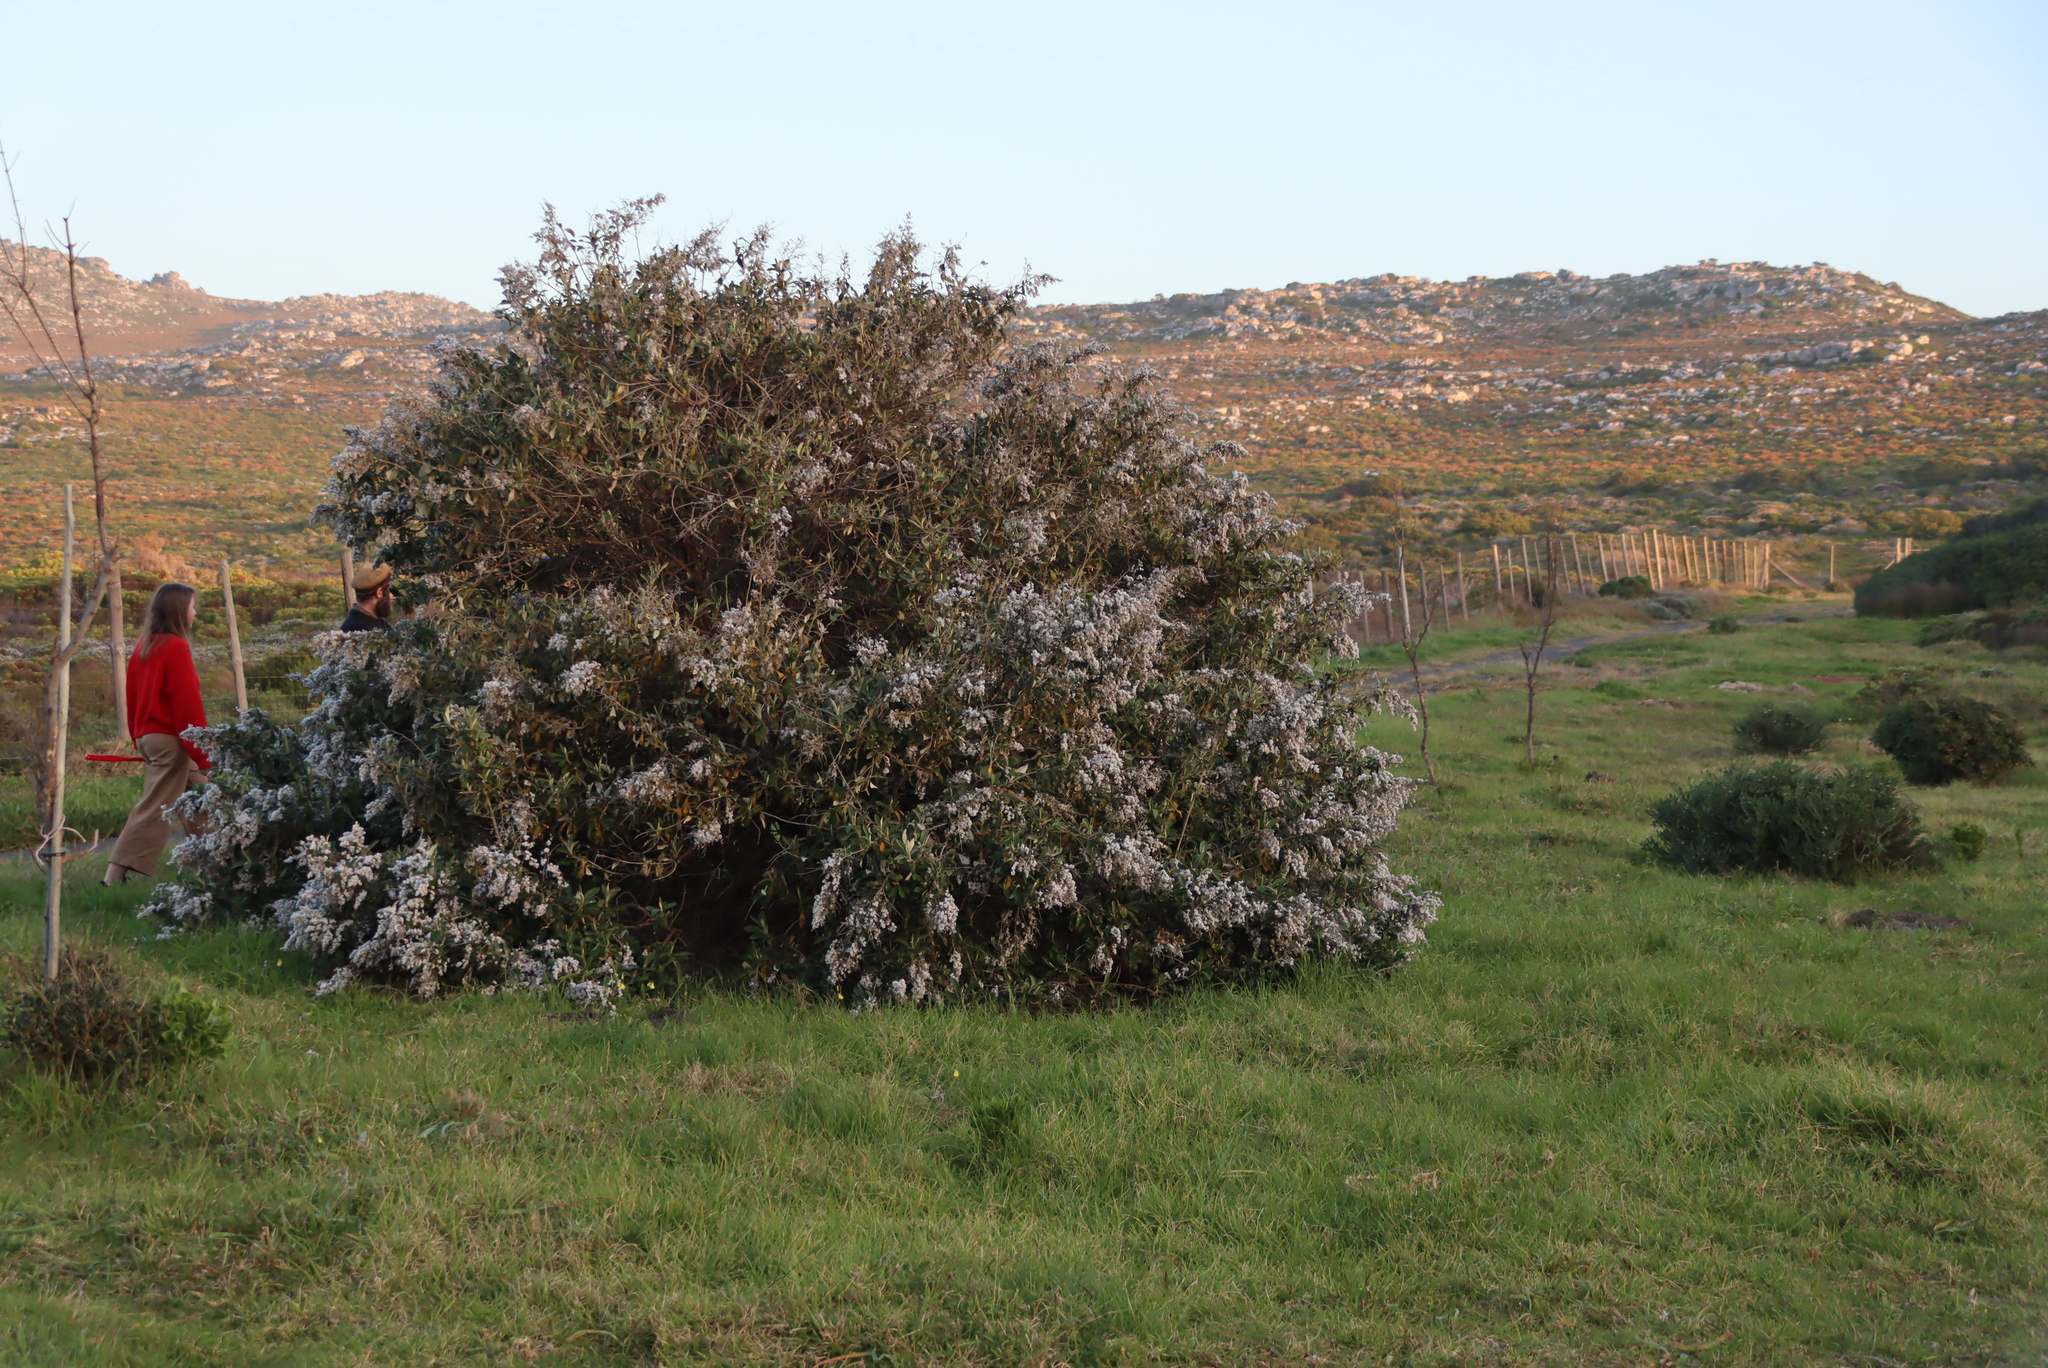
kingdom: Plantae
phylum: Tracheophyta
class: Magnoliopsida
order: Asterales
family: Asteraceae
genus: Tarchonanthus
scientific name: Tarchonanthus littoralis
